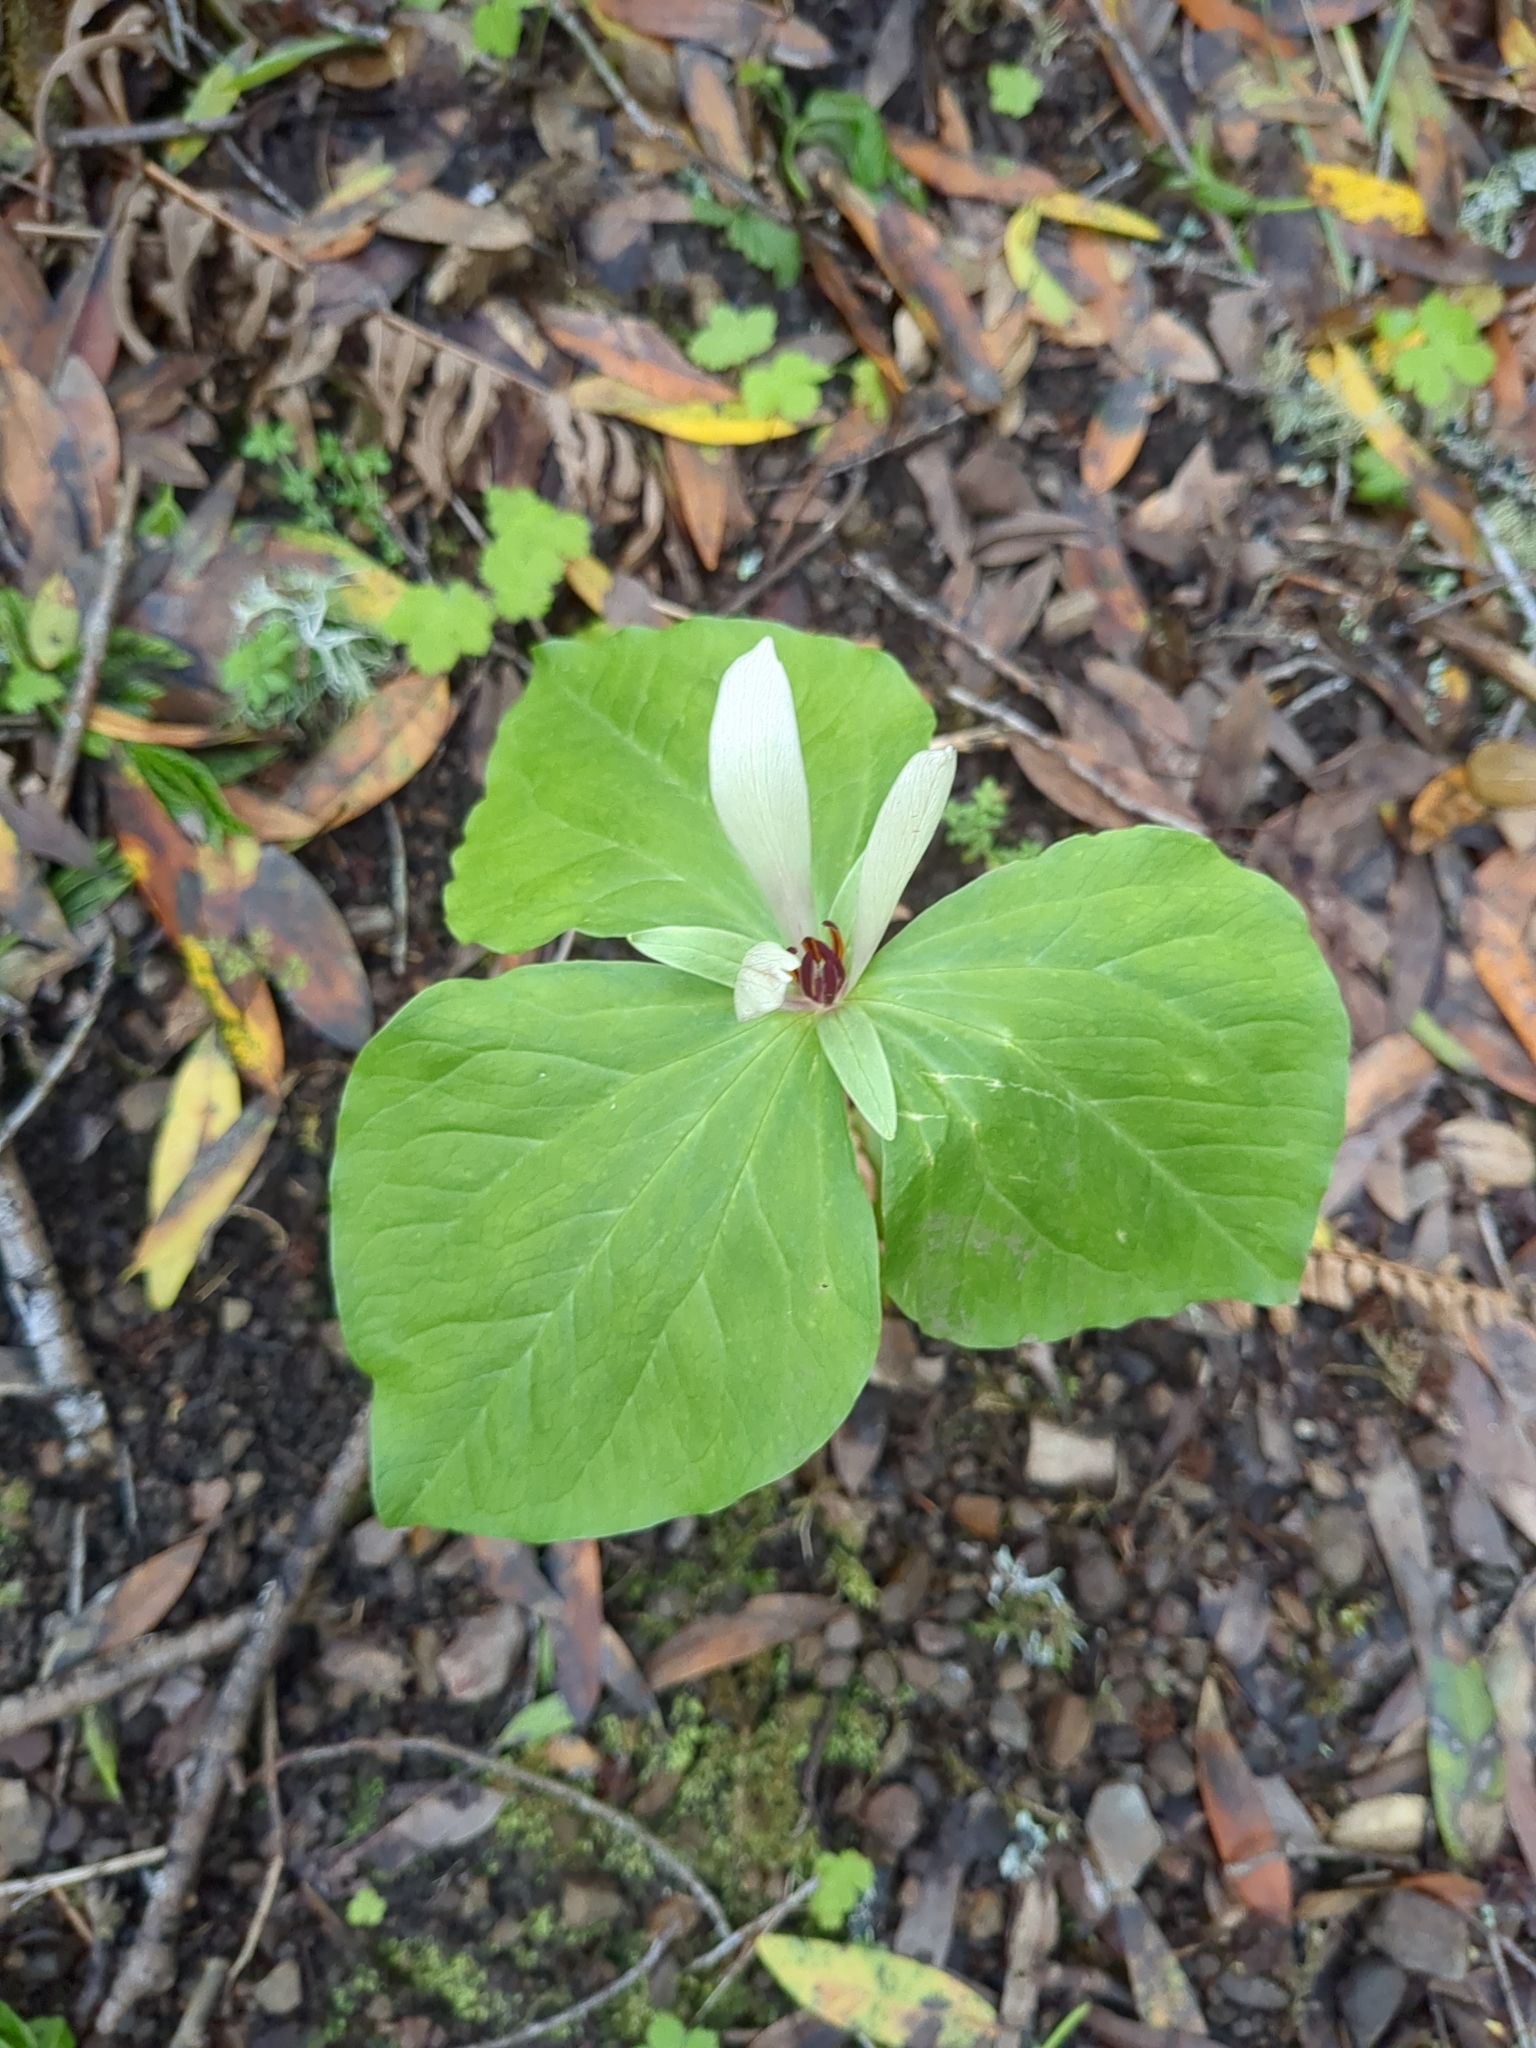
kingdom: Plantae
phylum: Tracheophyta
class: Liliopsida
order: Liliales
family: Melanthiaceae
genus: Trillium
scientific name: Trillium chloropetalum
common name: Giant trillium
